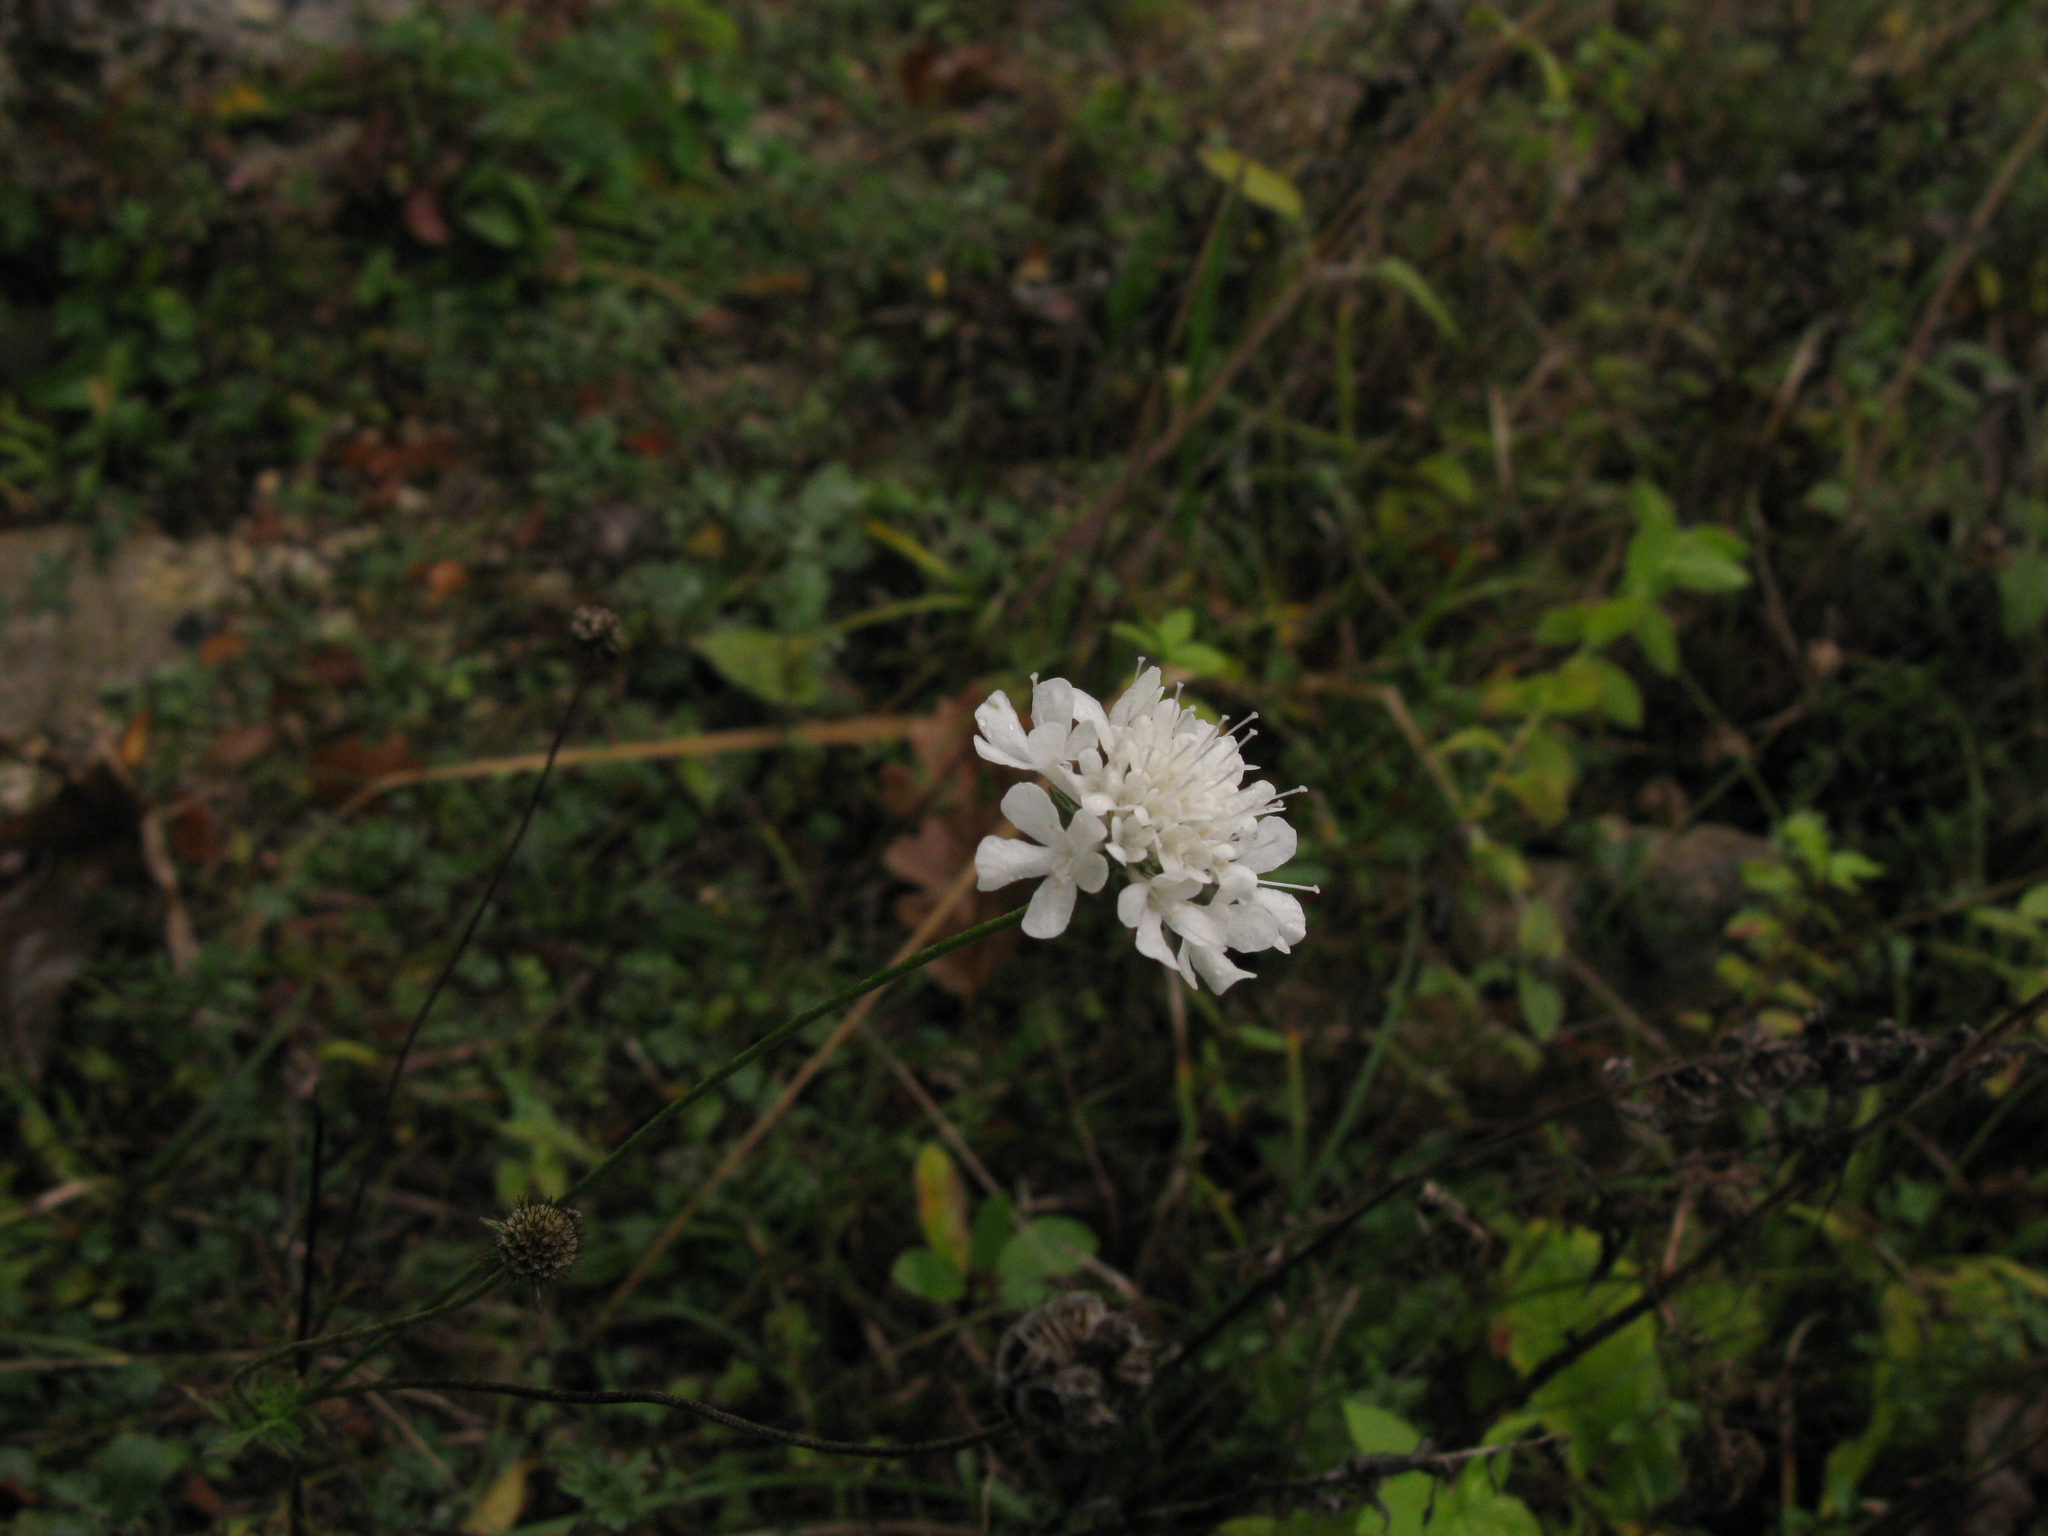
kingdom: Plantae
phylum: Tracheophyta
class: Magnoliopsida
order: Dipsacales
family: Caprifoliaceae
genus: Lomelosia
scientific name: Lomelosia argentea
